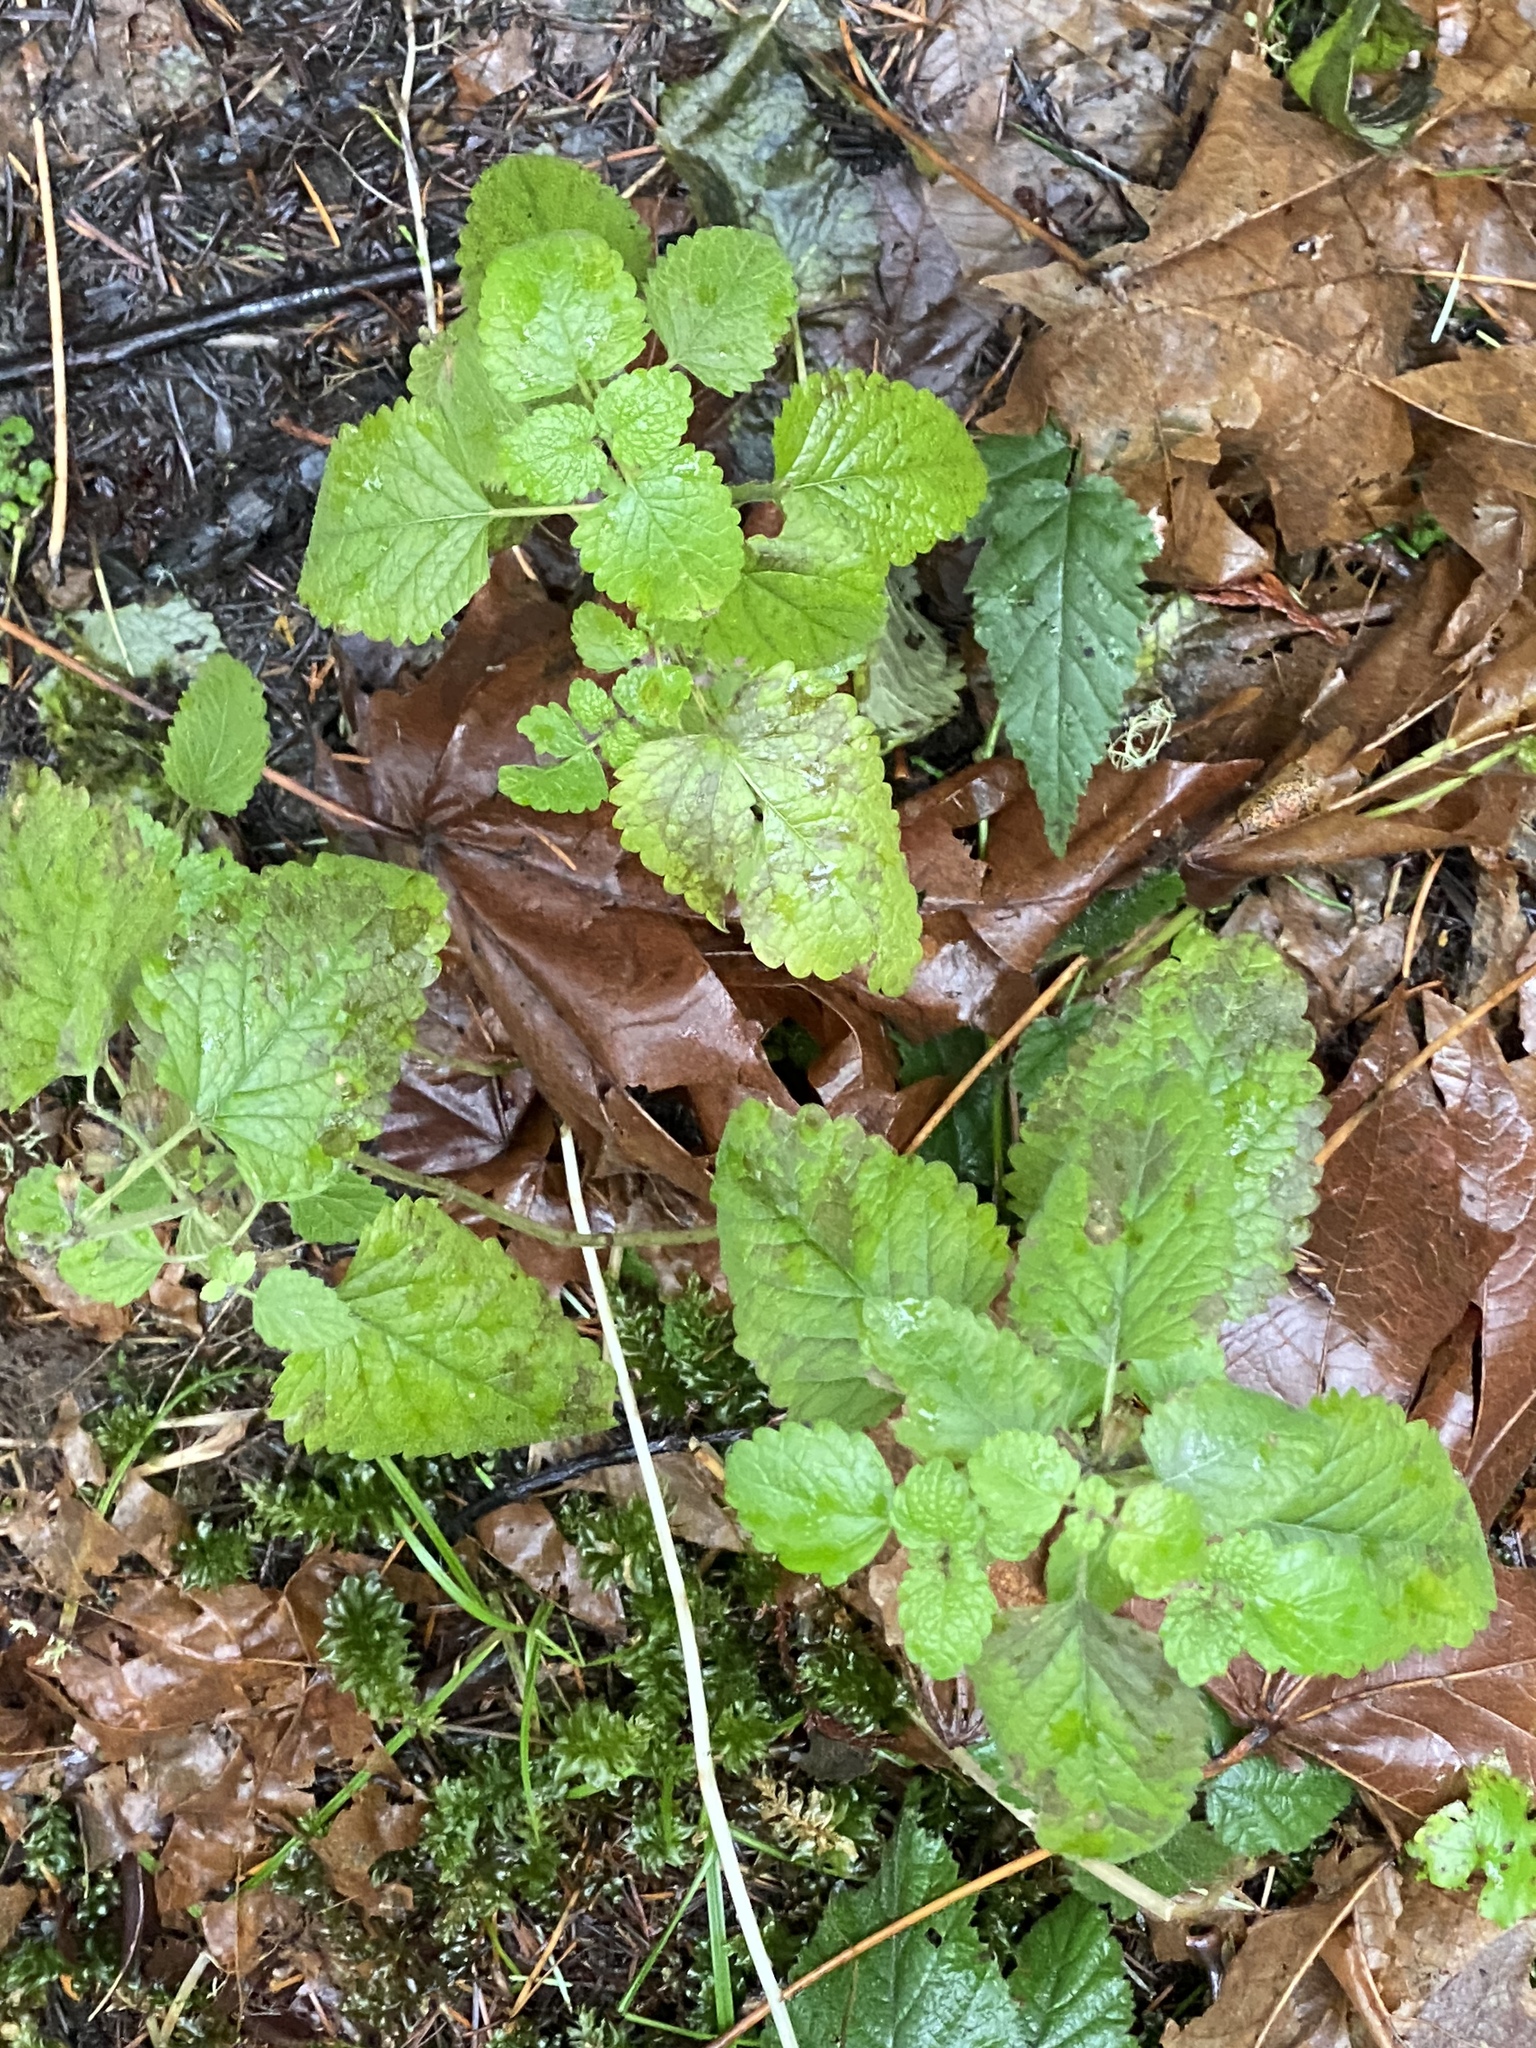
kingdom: Plantae
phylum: Tracheophyta
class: Magnoliopsida
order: Lamiales
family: Lamiaceae
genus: Melissa
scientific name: Melissa officinalis
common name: Balm
